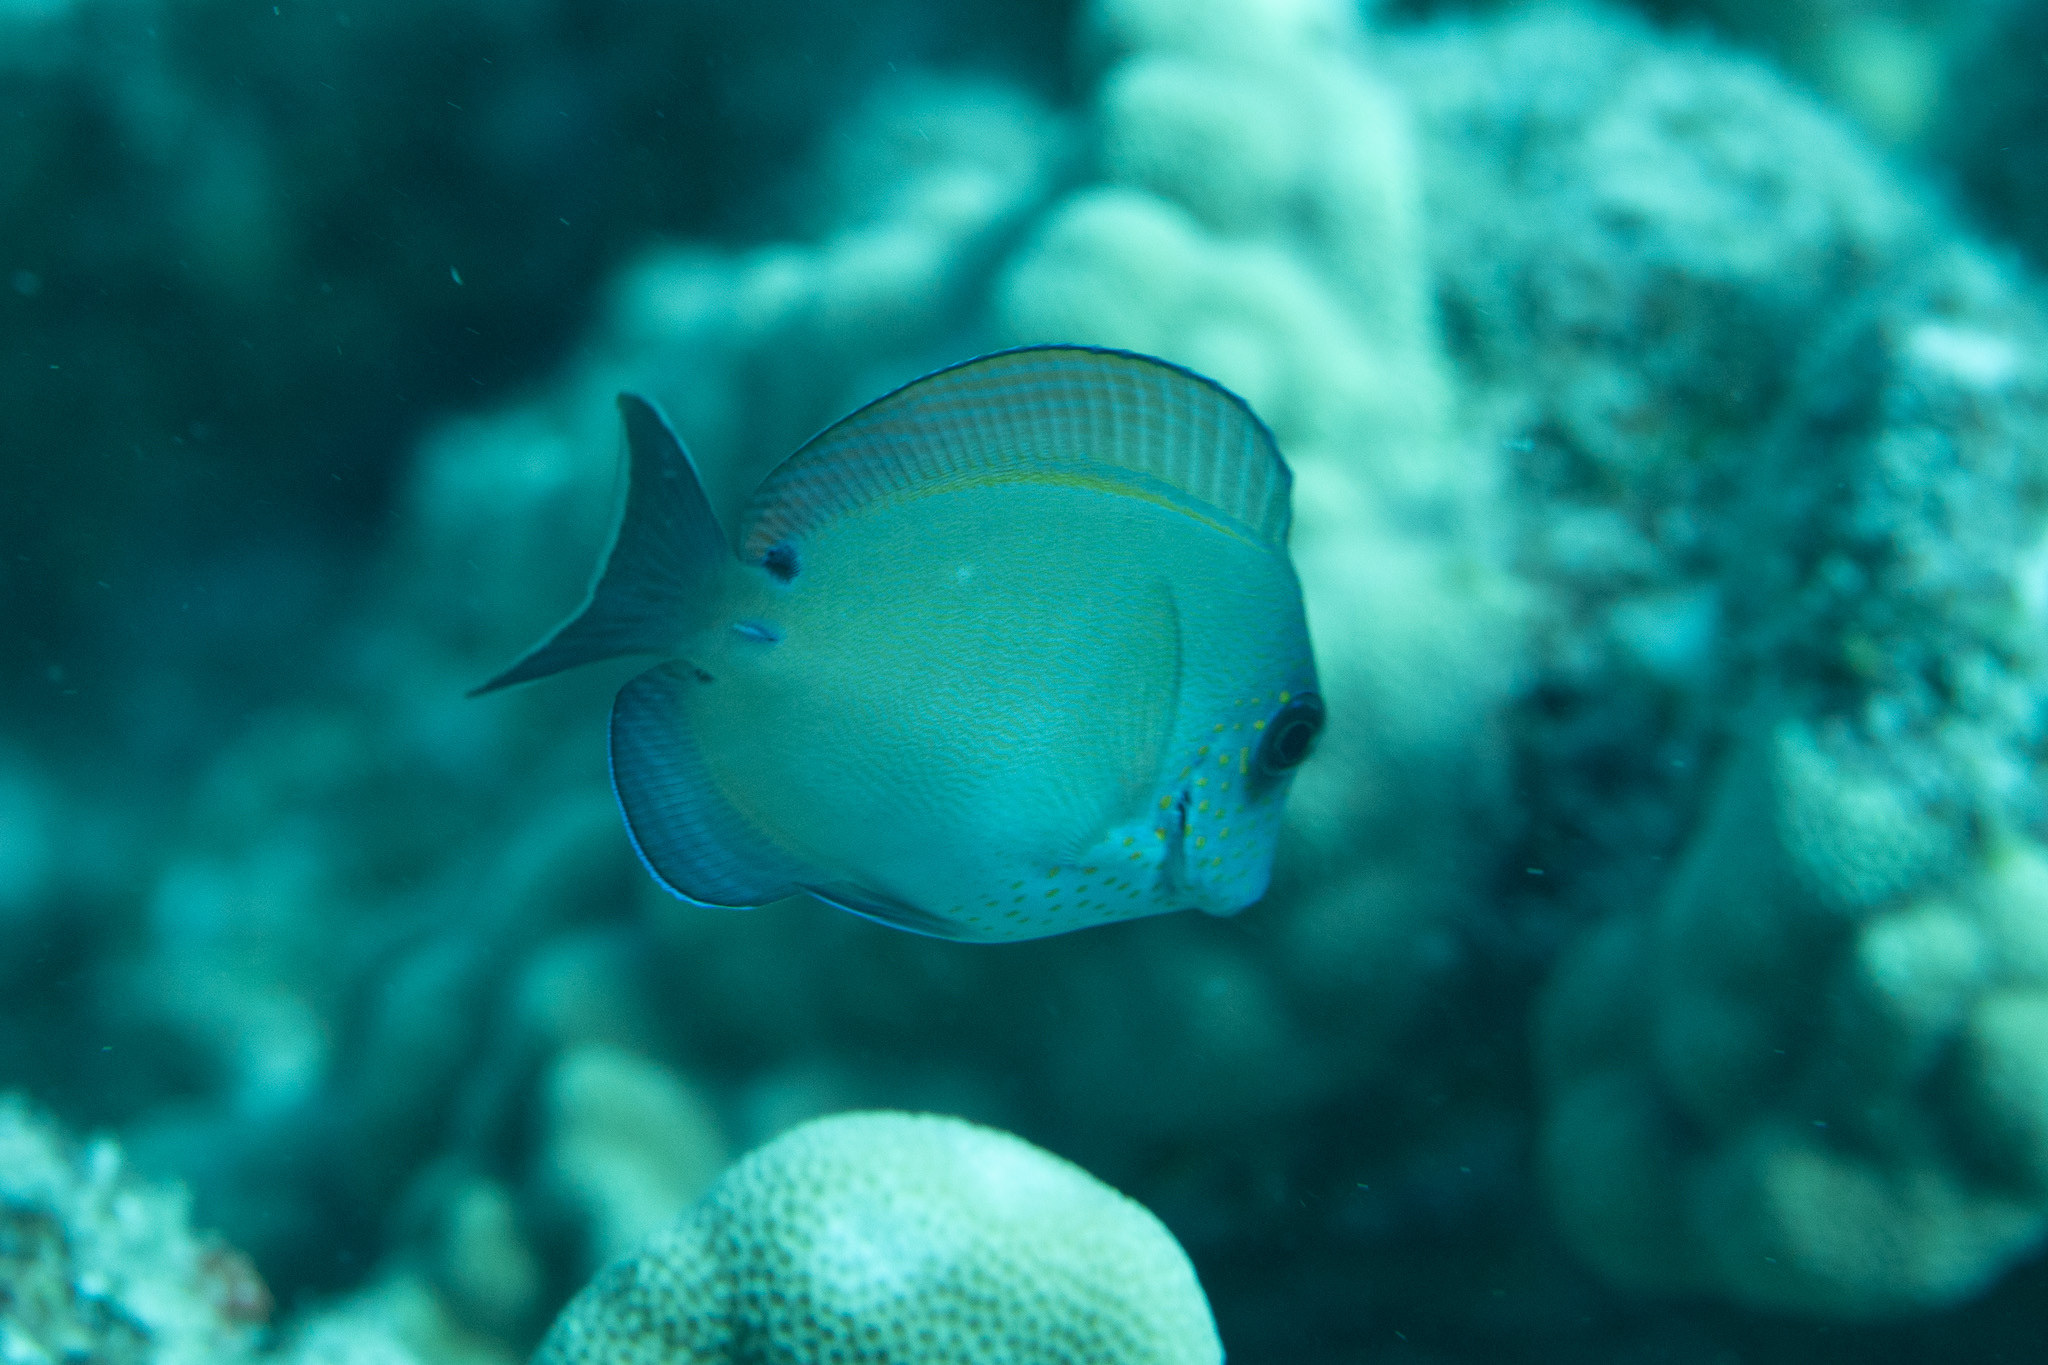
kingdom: Animalia
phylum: Chordata
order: Perciformes
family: Acanthuridae
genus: Acanthurus
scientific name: Acanthurus nigrofuscus
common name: Blackspot surgeonfish
